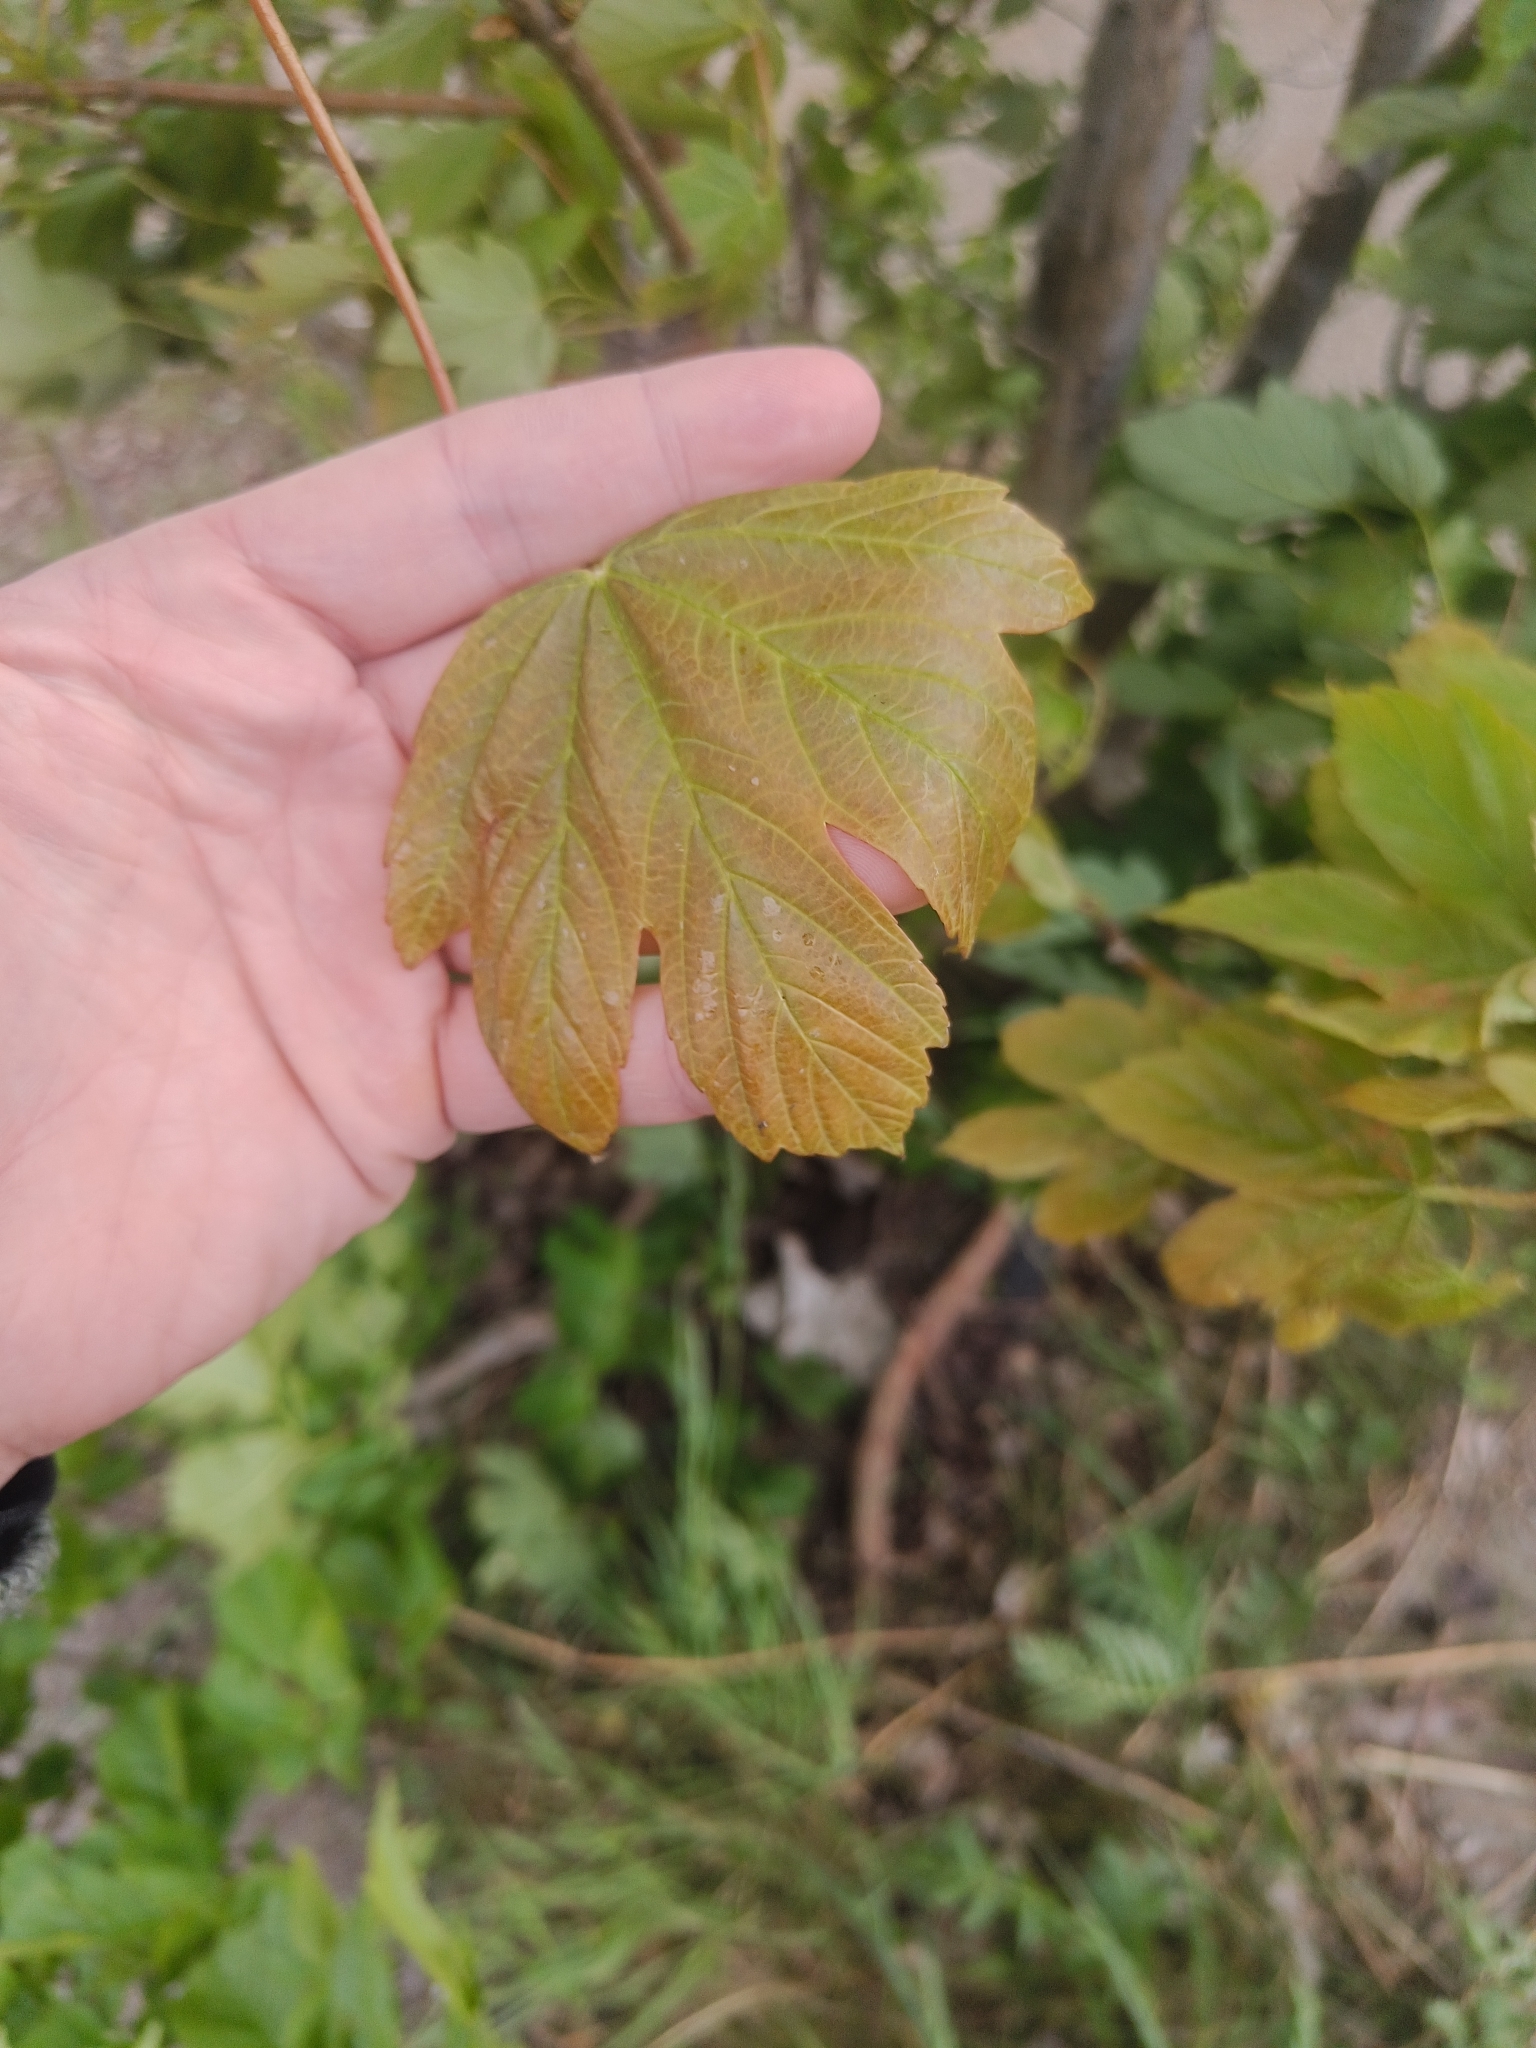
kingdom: Plantae
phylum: Tracheophyta
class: Magnoliopsida
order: Sapindales
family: Sapindaceae
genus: Acer
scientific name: Acer pseudoplatanus
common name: Sycamore
